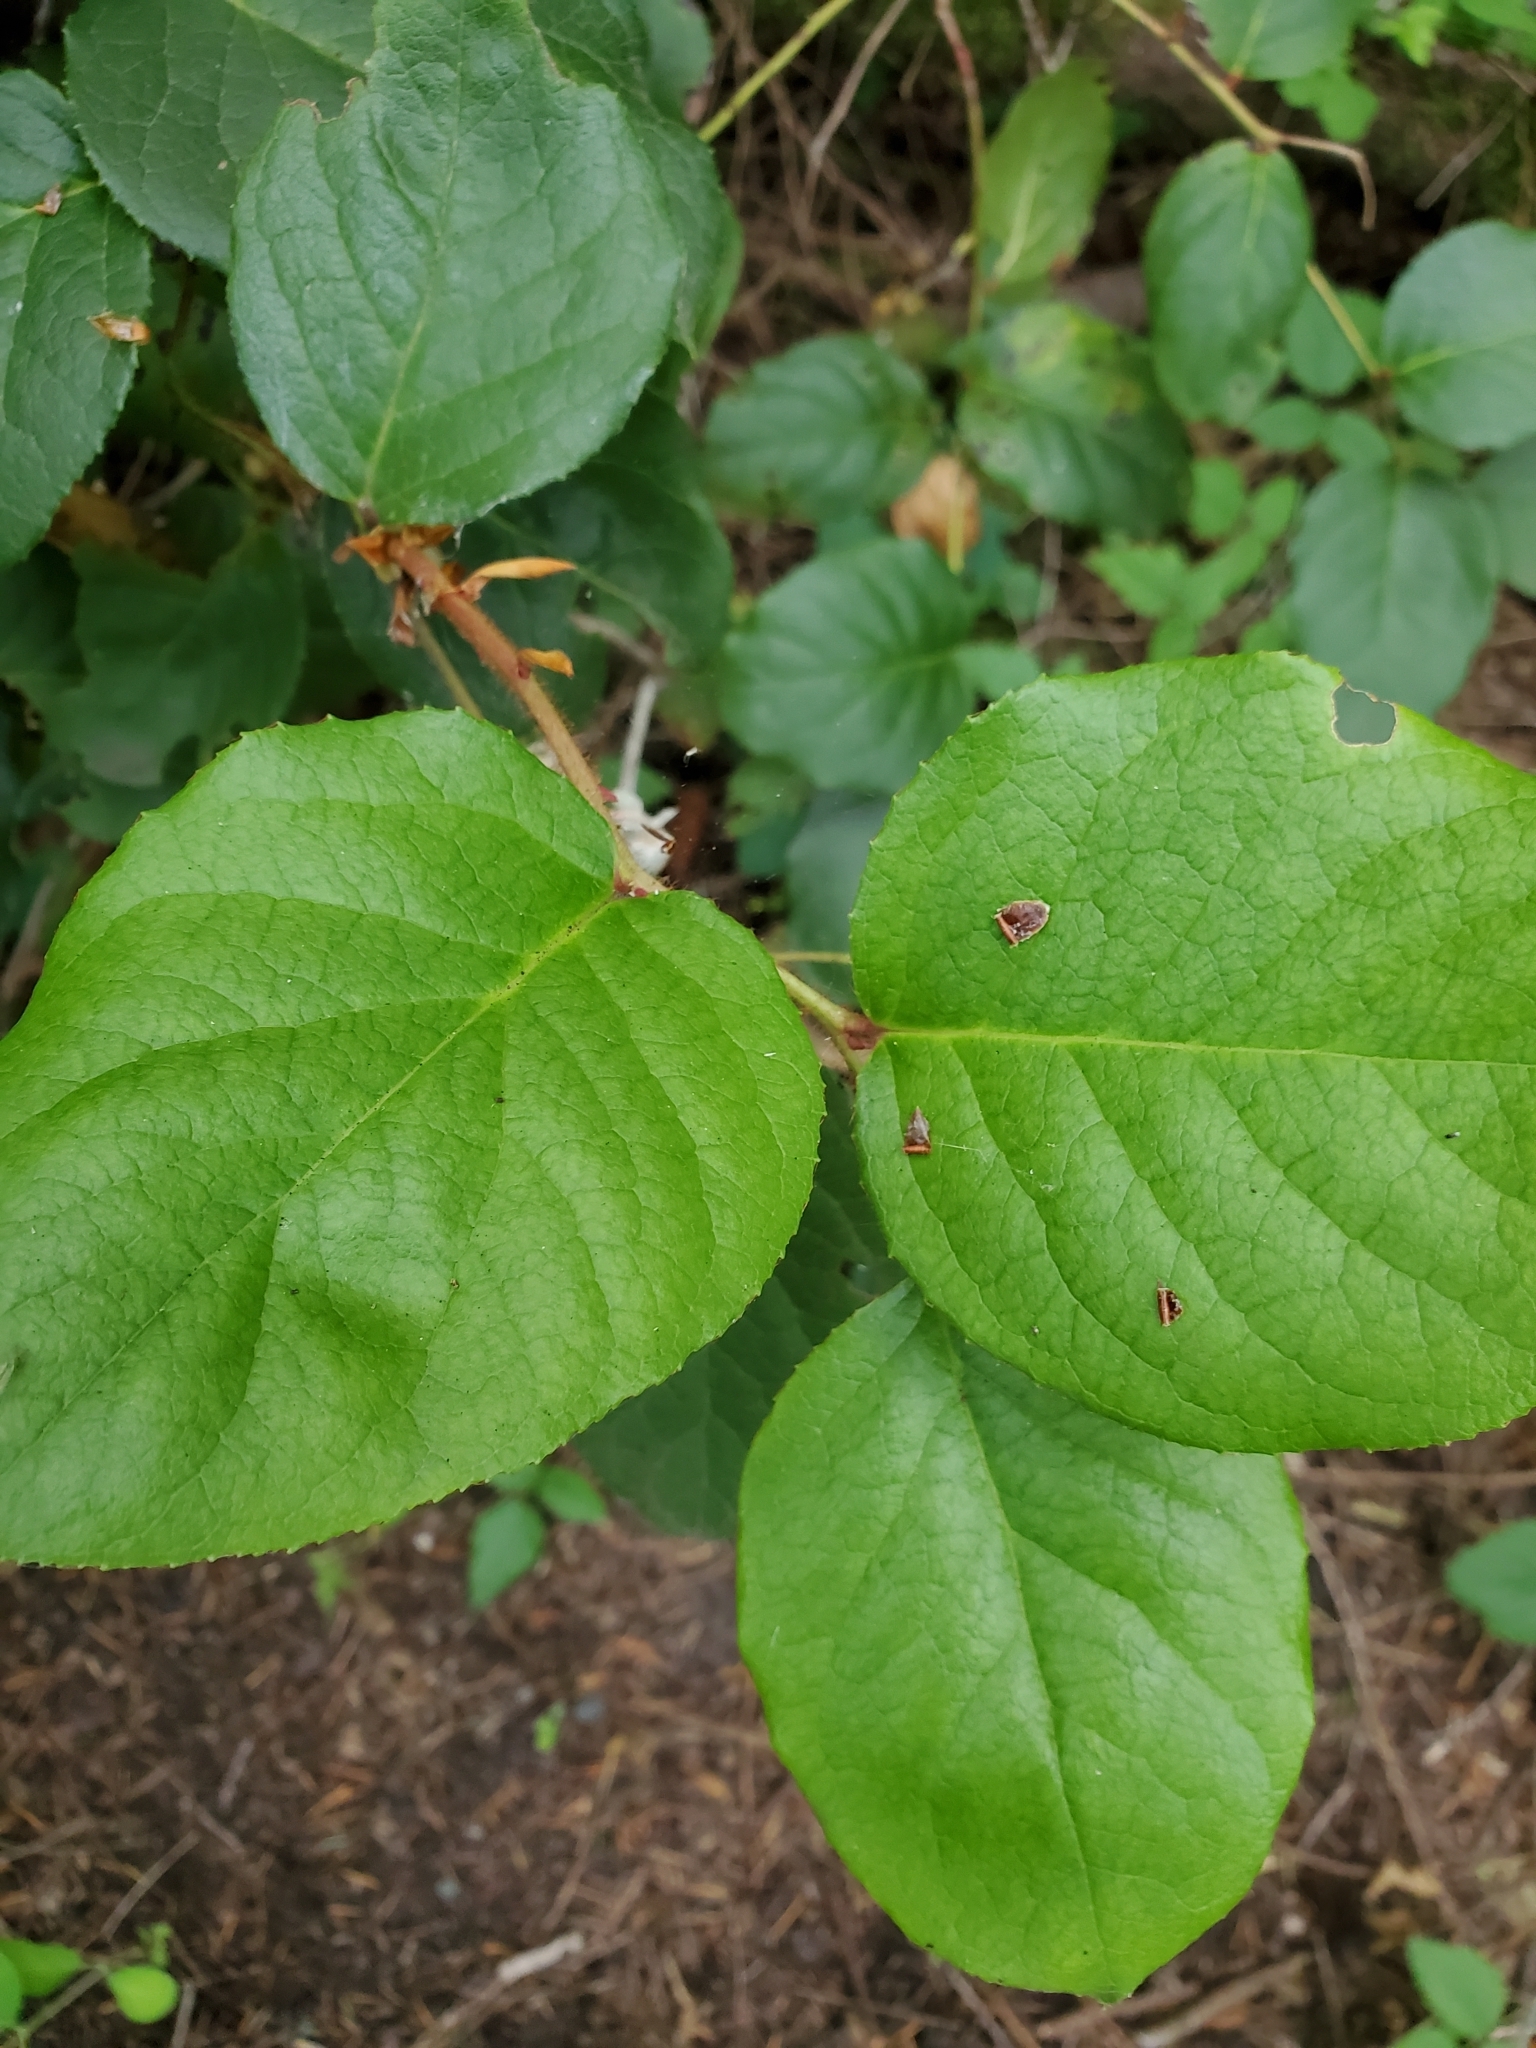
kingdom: Plantae
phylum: Tracheophyta
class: Magnoliopsida
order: Ericales
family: Ericaceae
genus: Gaultheria
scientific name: Gaultheria shallon
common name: Shallon
